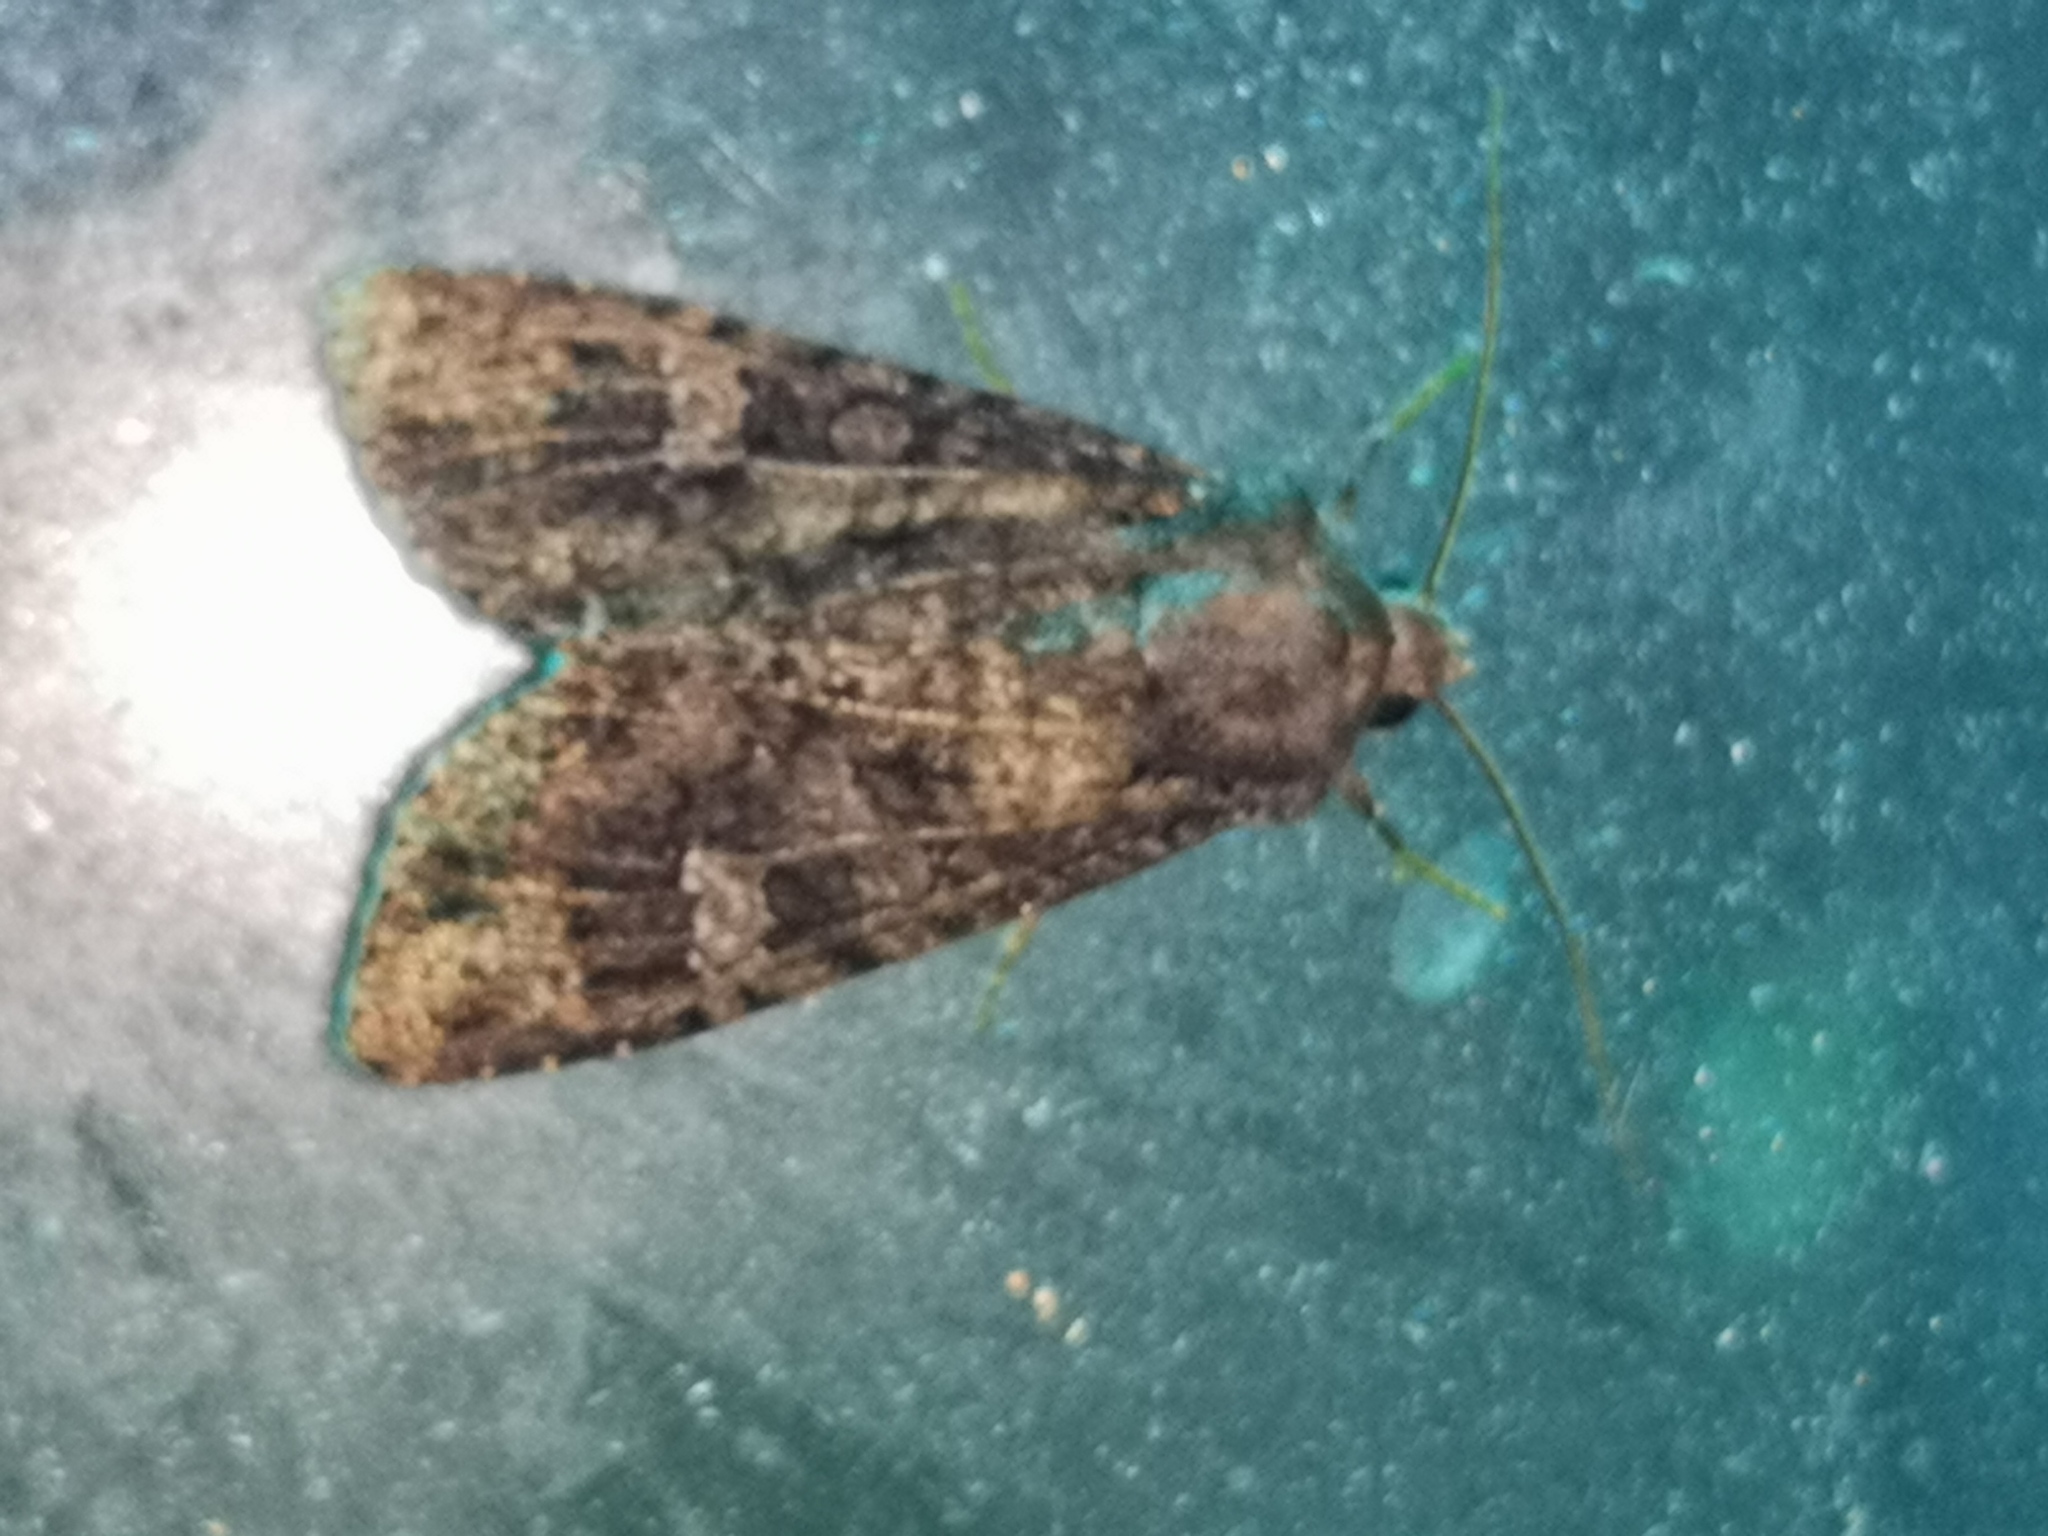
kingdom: Animalia
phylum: Arthropoda
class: Insecta
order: Lepidoptera
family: Noctuidae
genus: Mamestra
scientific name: Mamestra brassicae
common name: Cabbage moth
